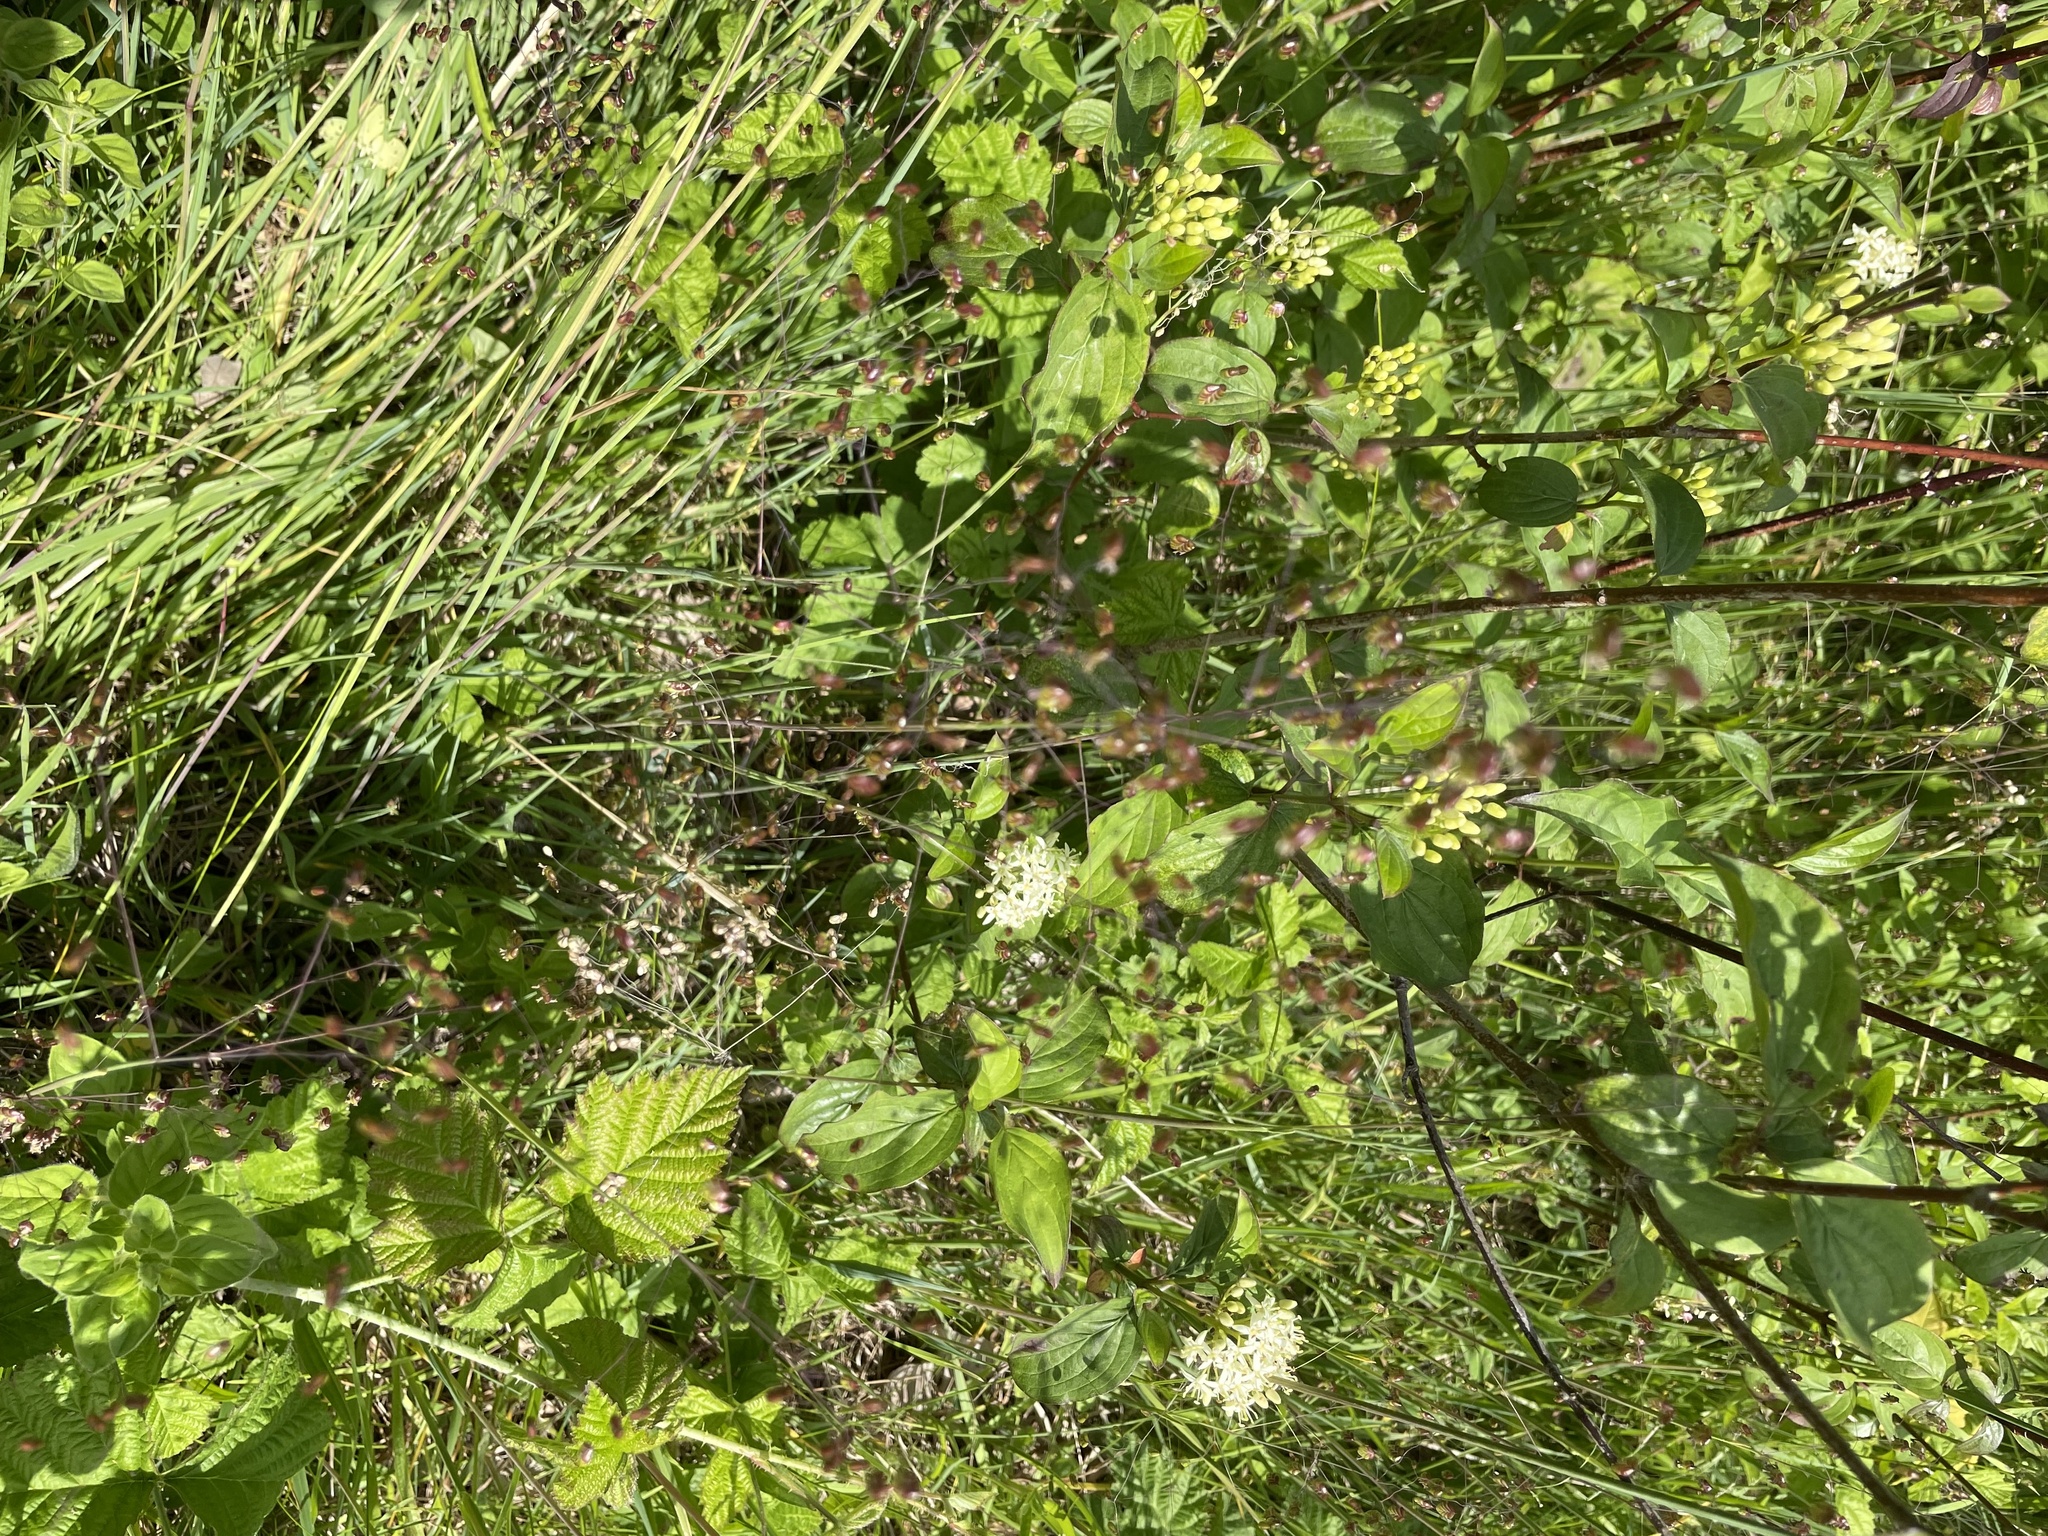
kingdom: Plantae
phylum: Tracheophyta
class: Liliopsida
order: Poales
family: Poaceae
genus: Briza
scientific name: Briza media
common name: Quaking grass
